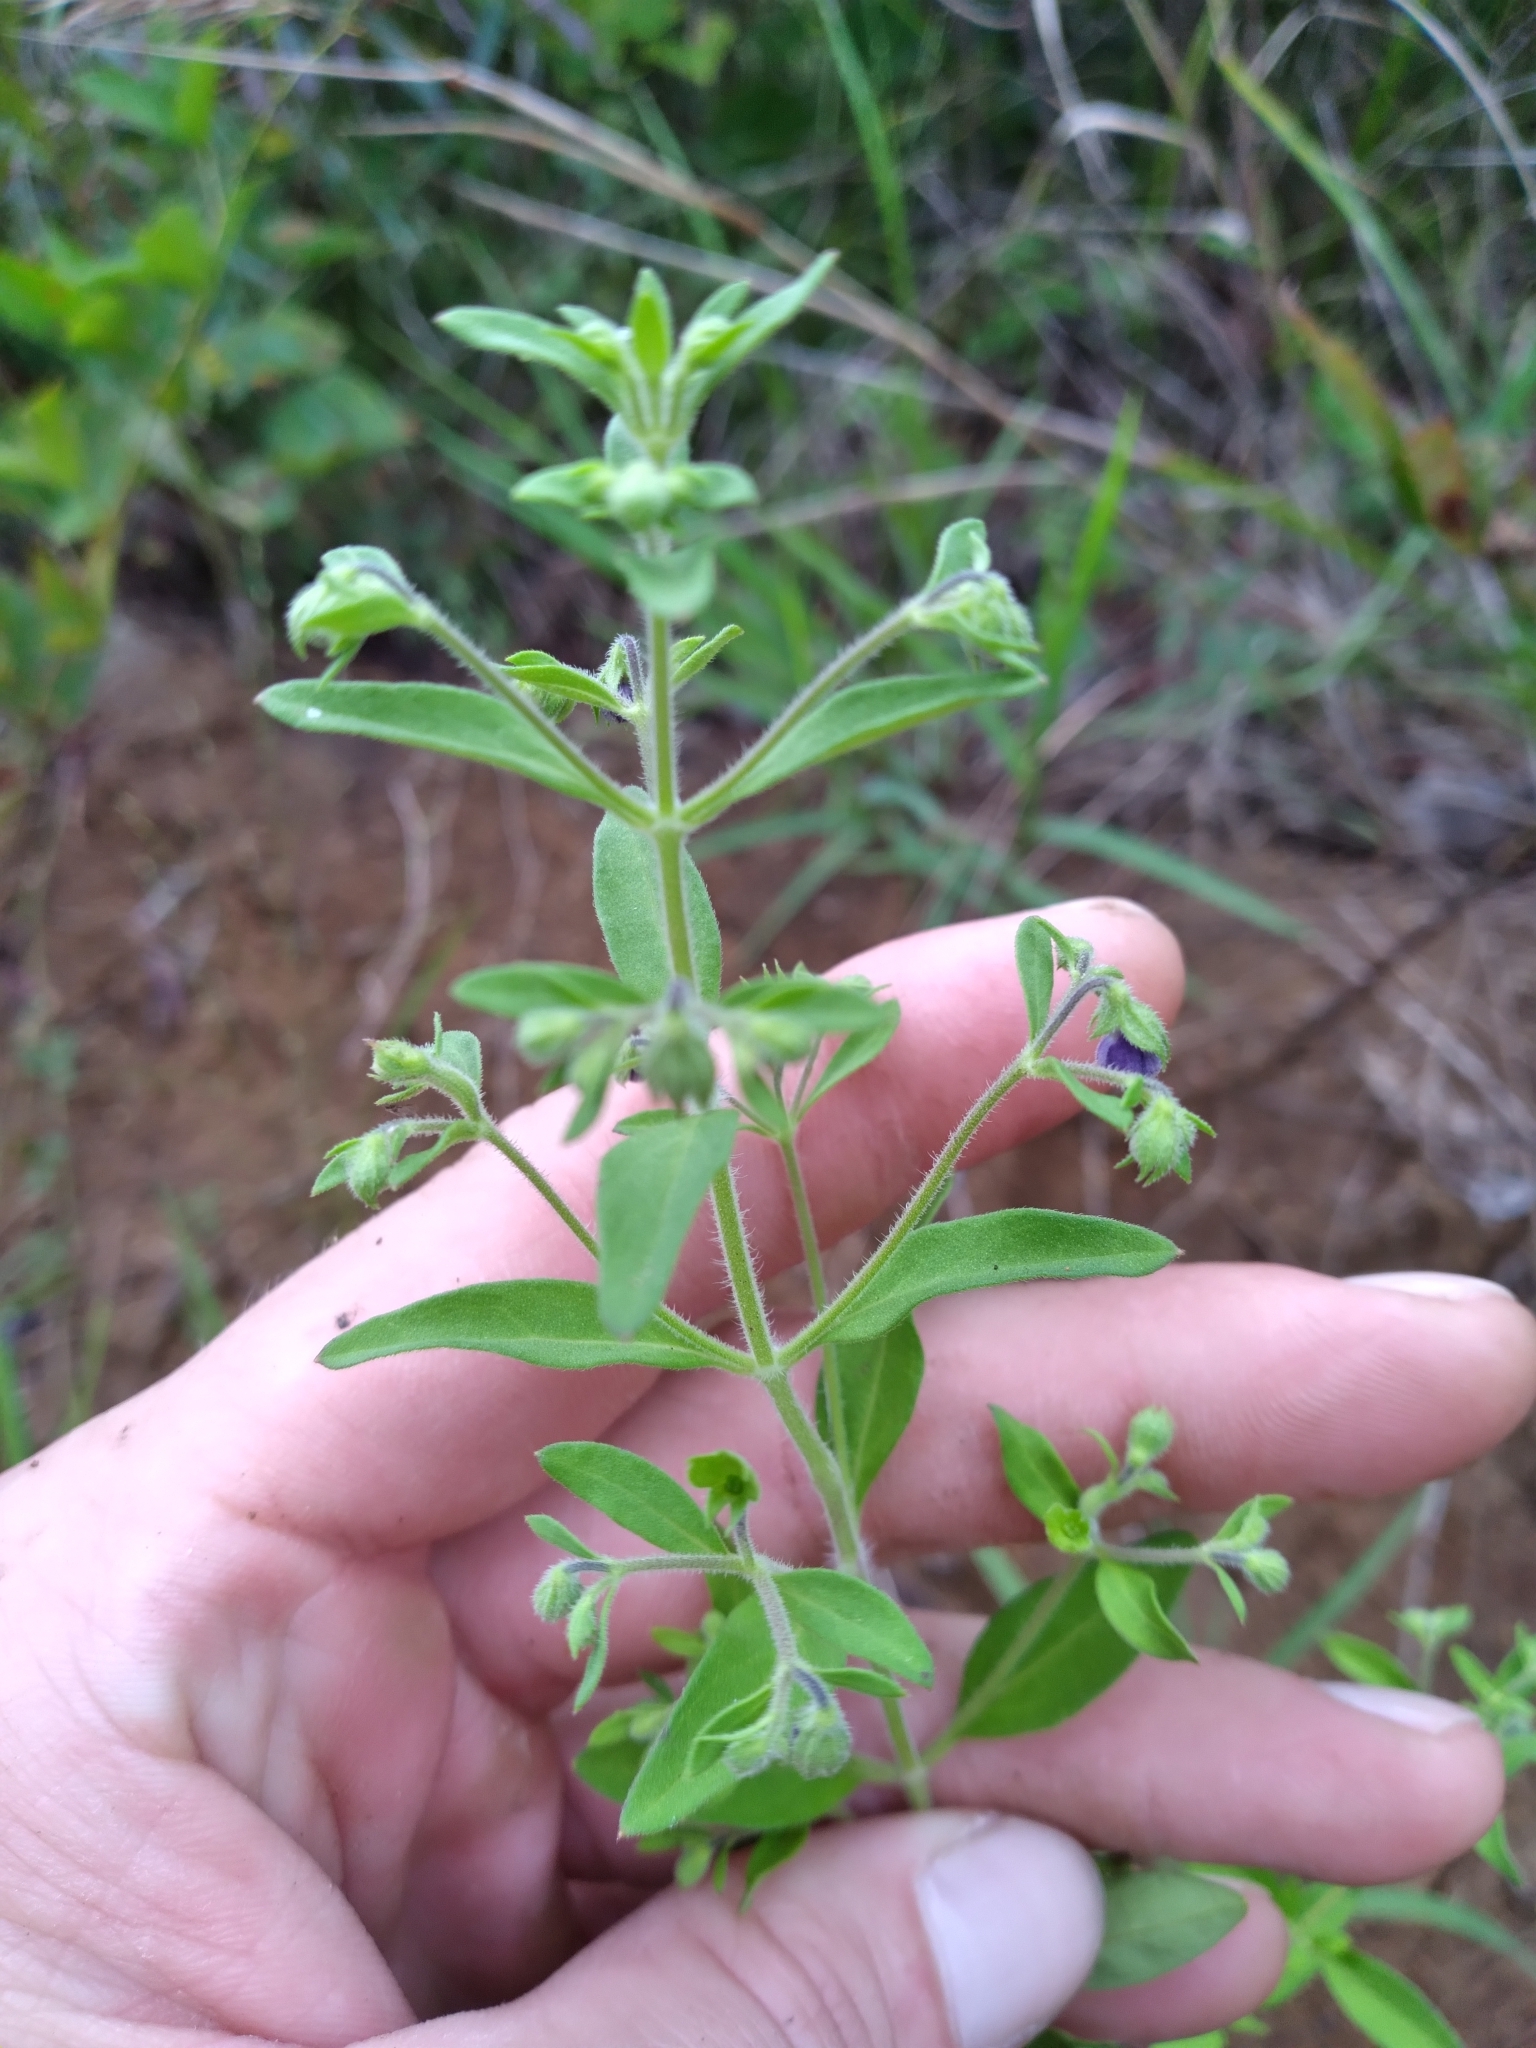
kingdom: Plantae
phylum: Tracheophyta
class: Magnoliopsida
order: Lamiales
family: Lamiaceae
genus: Trichostema
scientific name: Trichostema dichotomum
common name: Bastard pennyroyal
